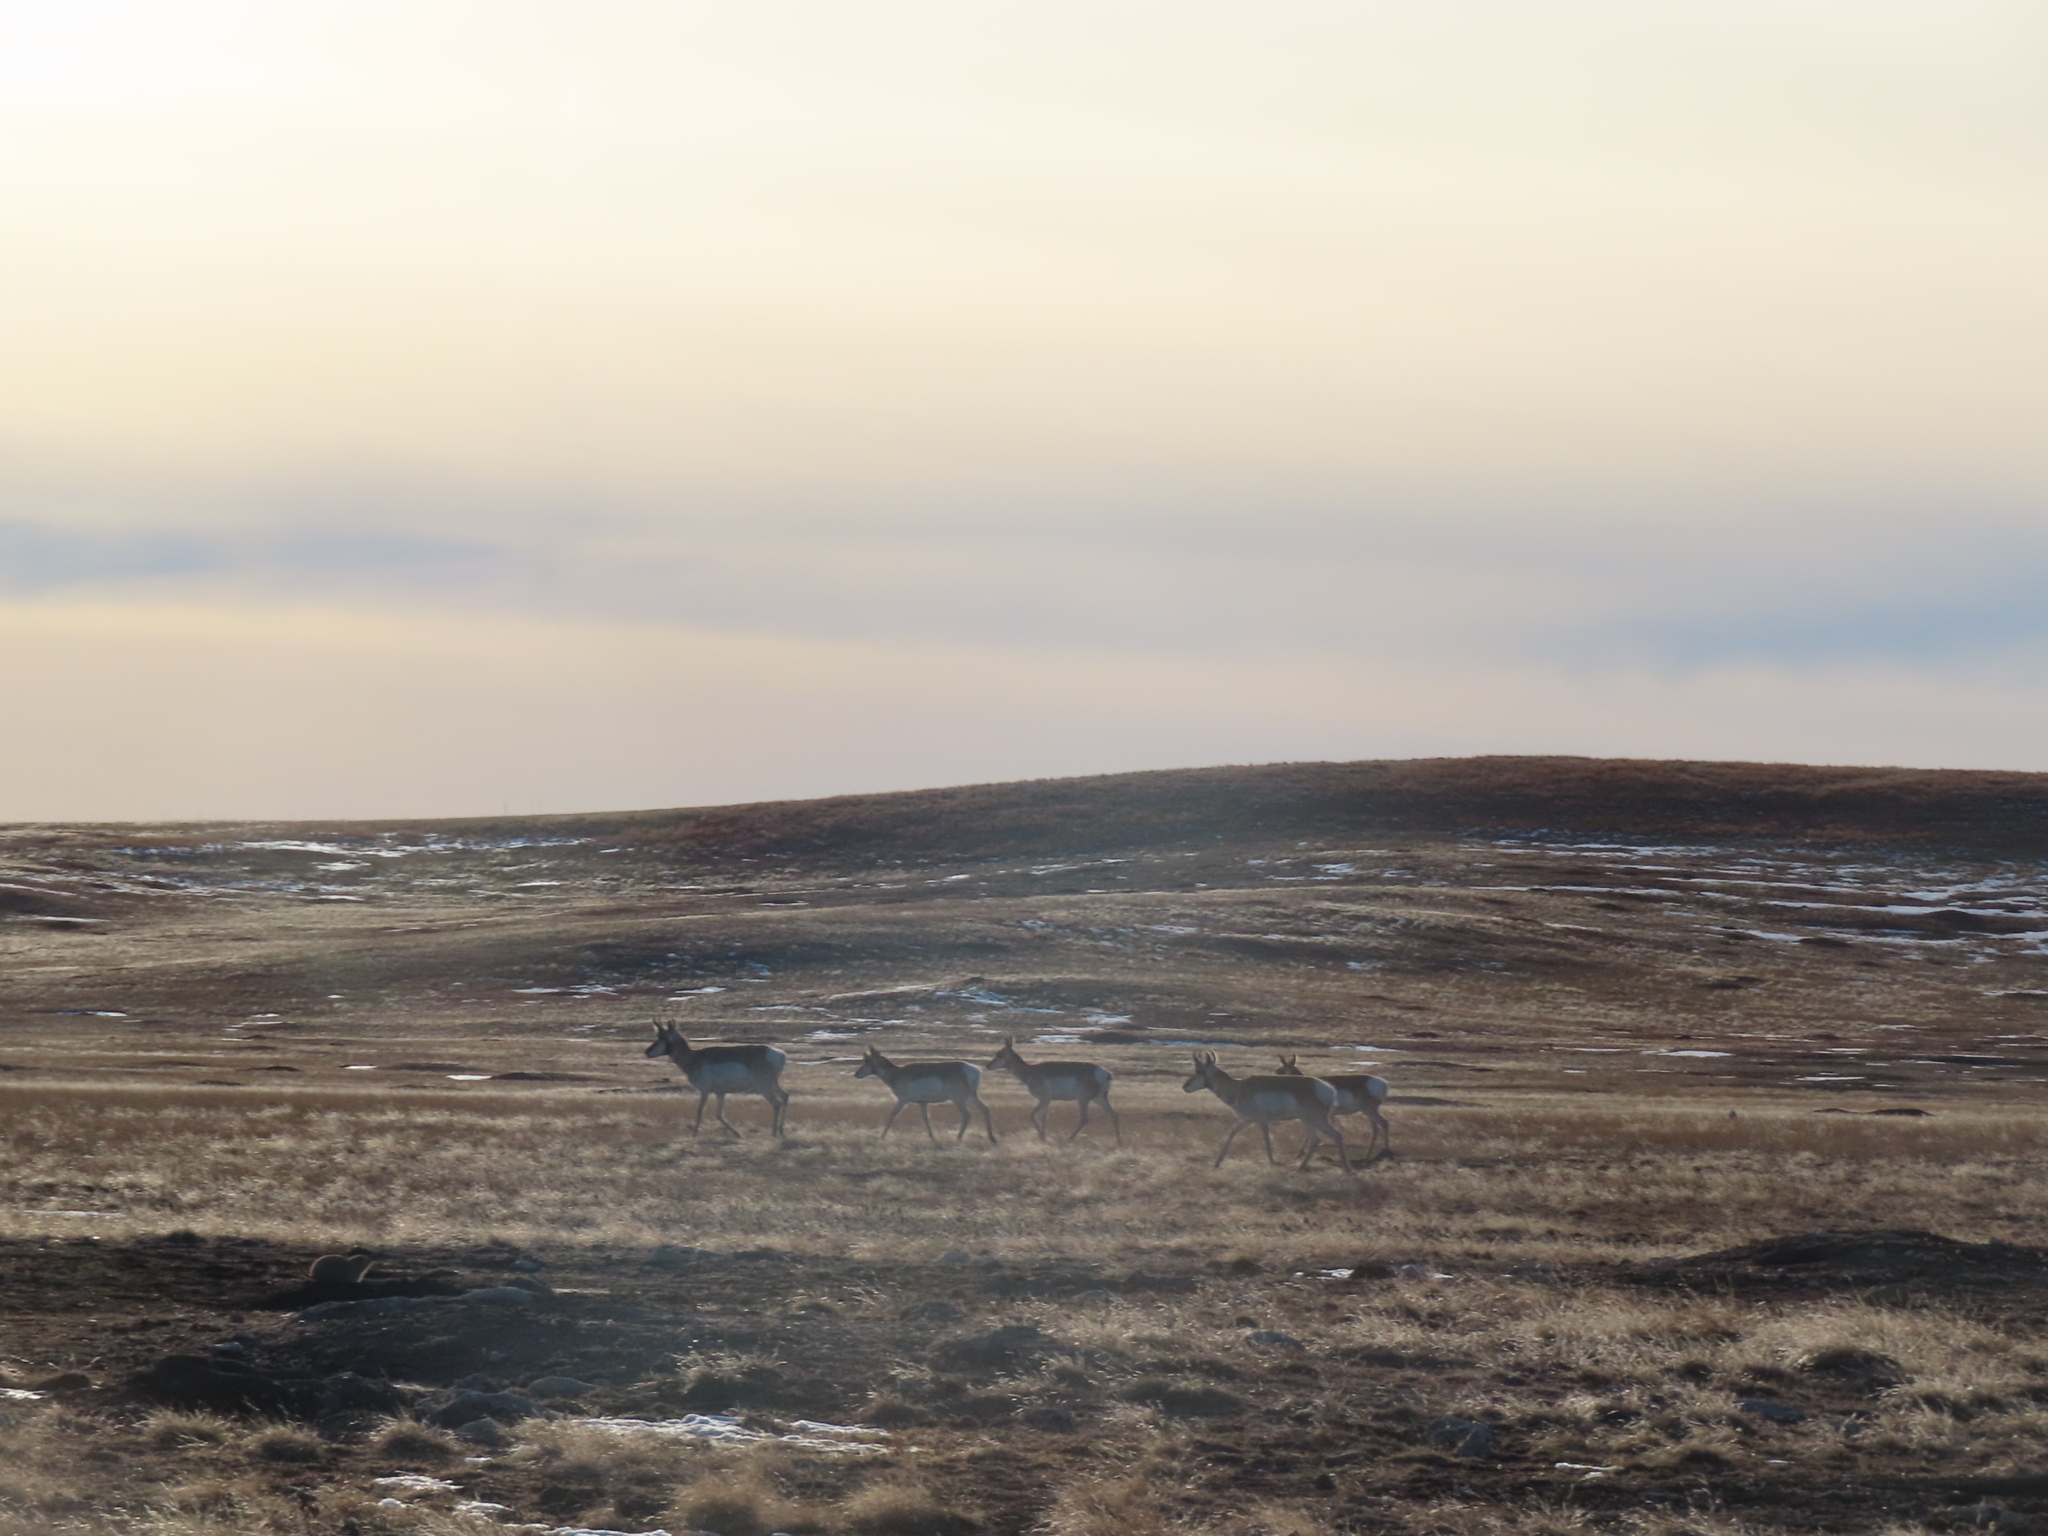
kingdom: Animalia
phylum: Chordata
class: Mammalia
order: Artiodactyla
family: Antilocapridae
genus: Antilocapra
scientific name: Antilocapra americana
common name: Pronghorn
